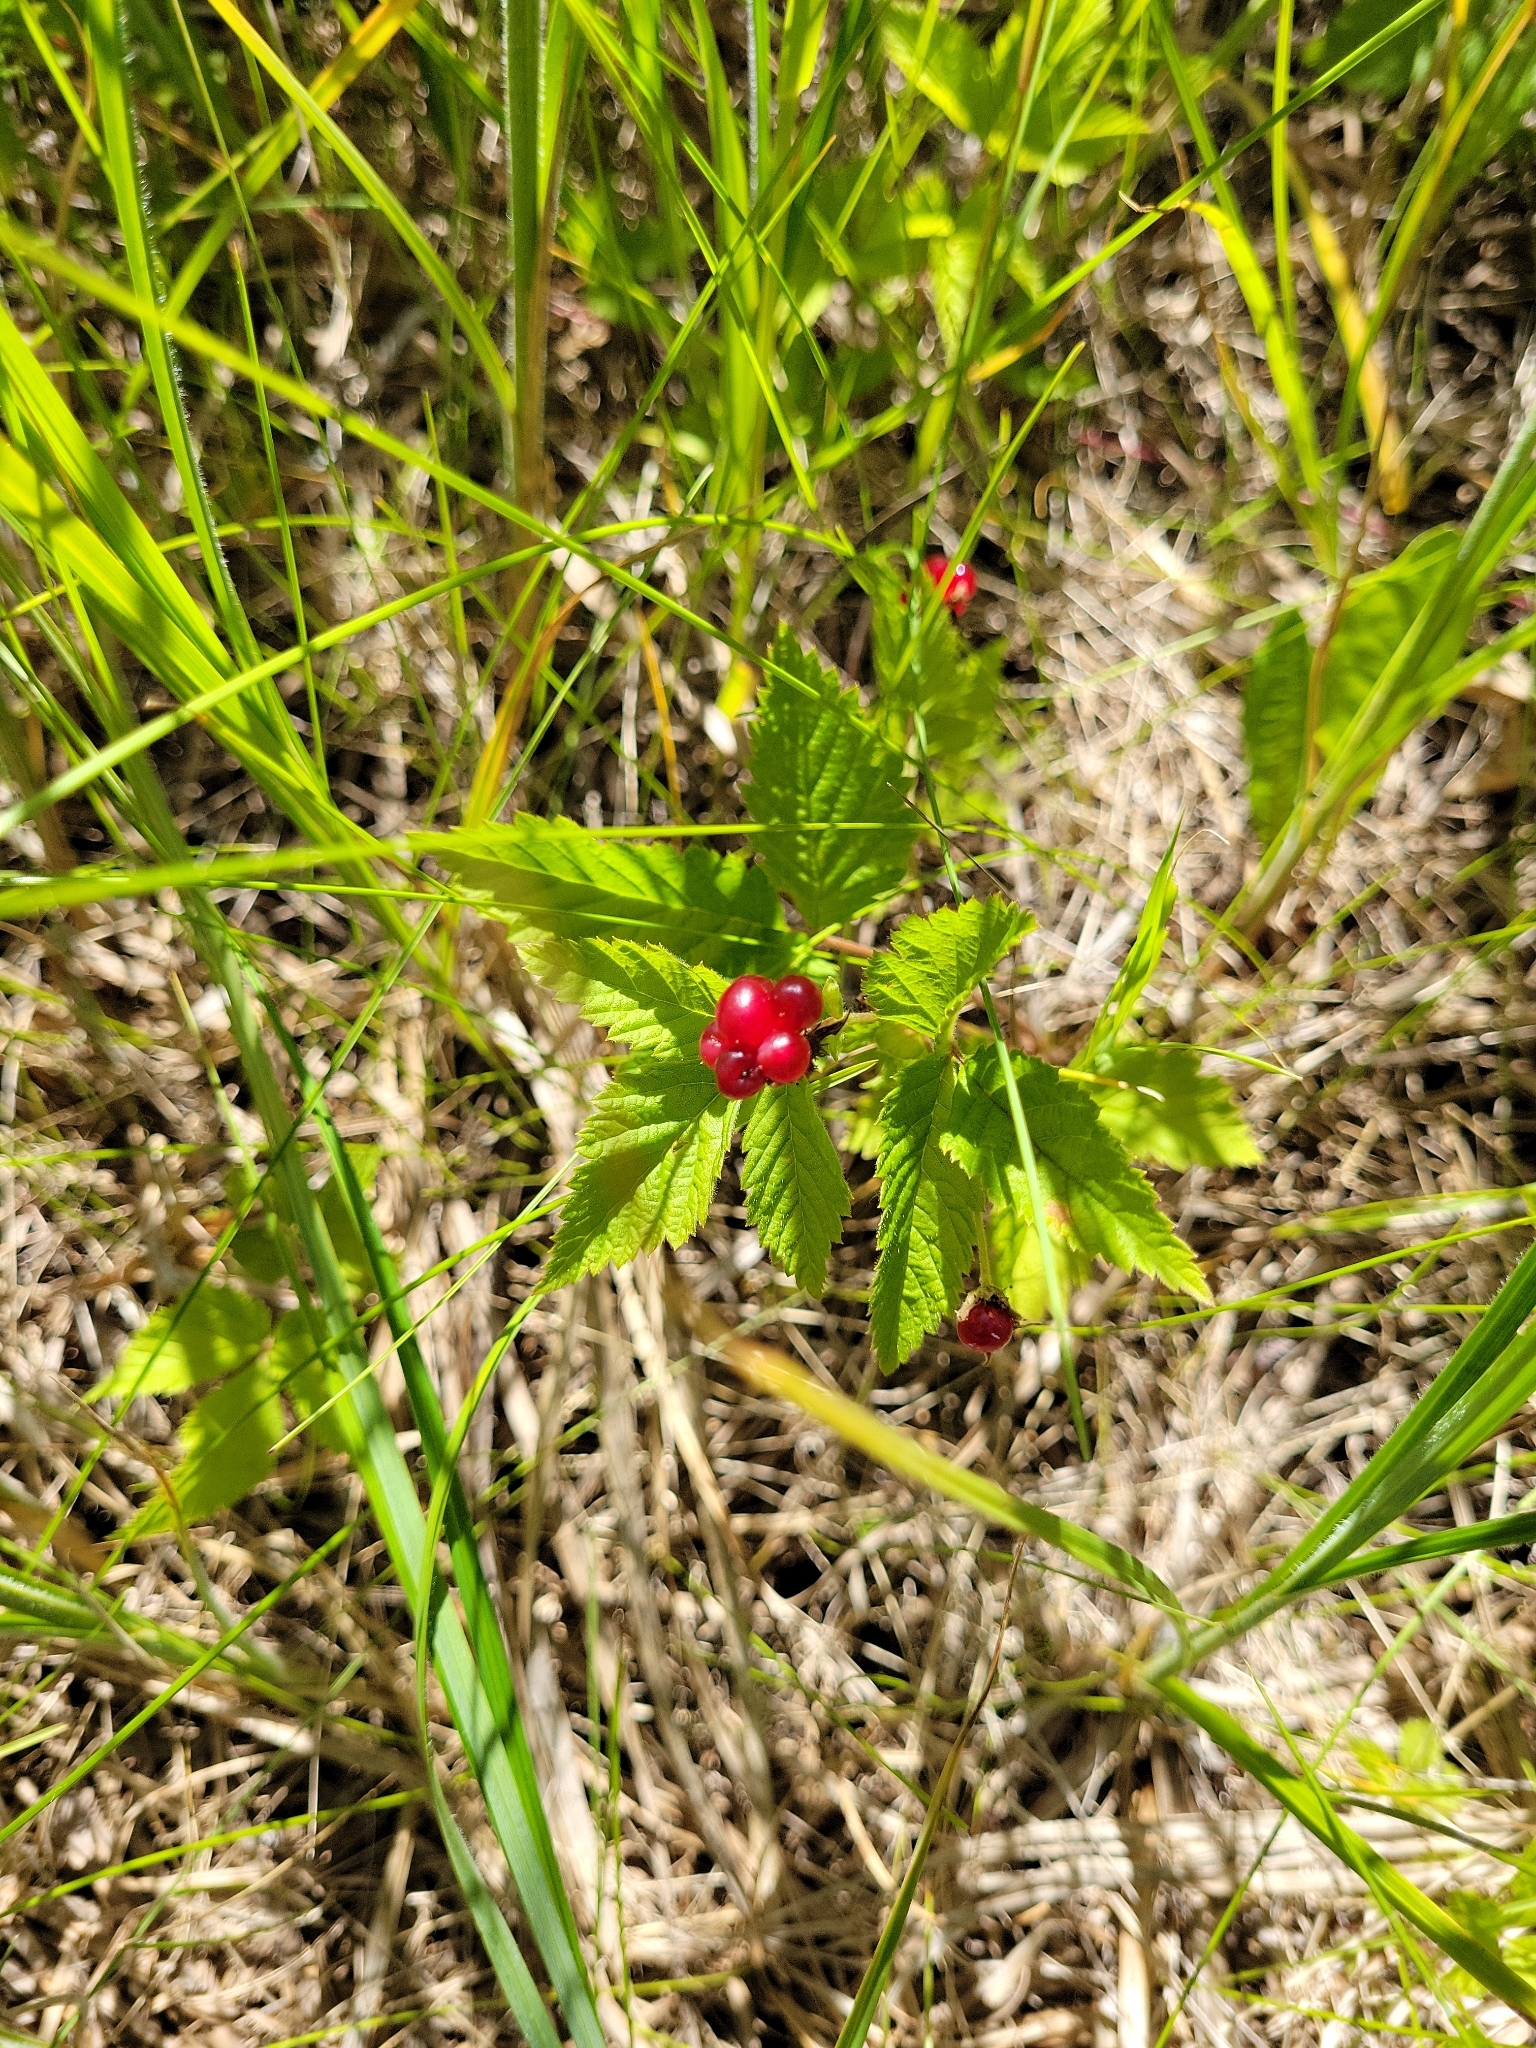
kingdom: Plantae
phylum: Tracheophyta
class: Magnoliopsida
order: Rosales
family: Rosaceae
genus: Rubus
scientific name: Rubus pubescens
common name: Dwarf raspberry
